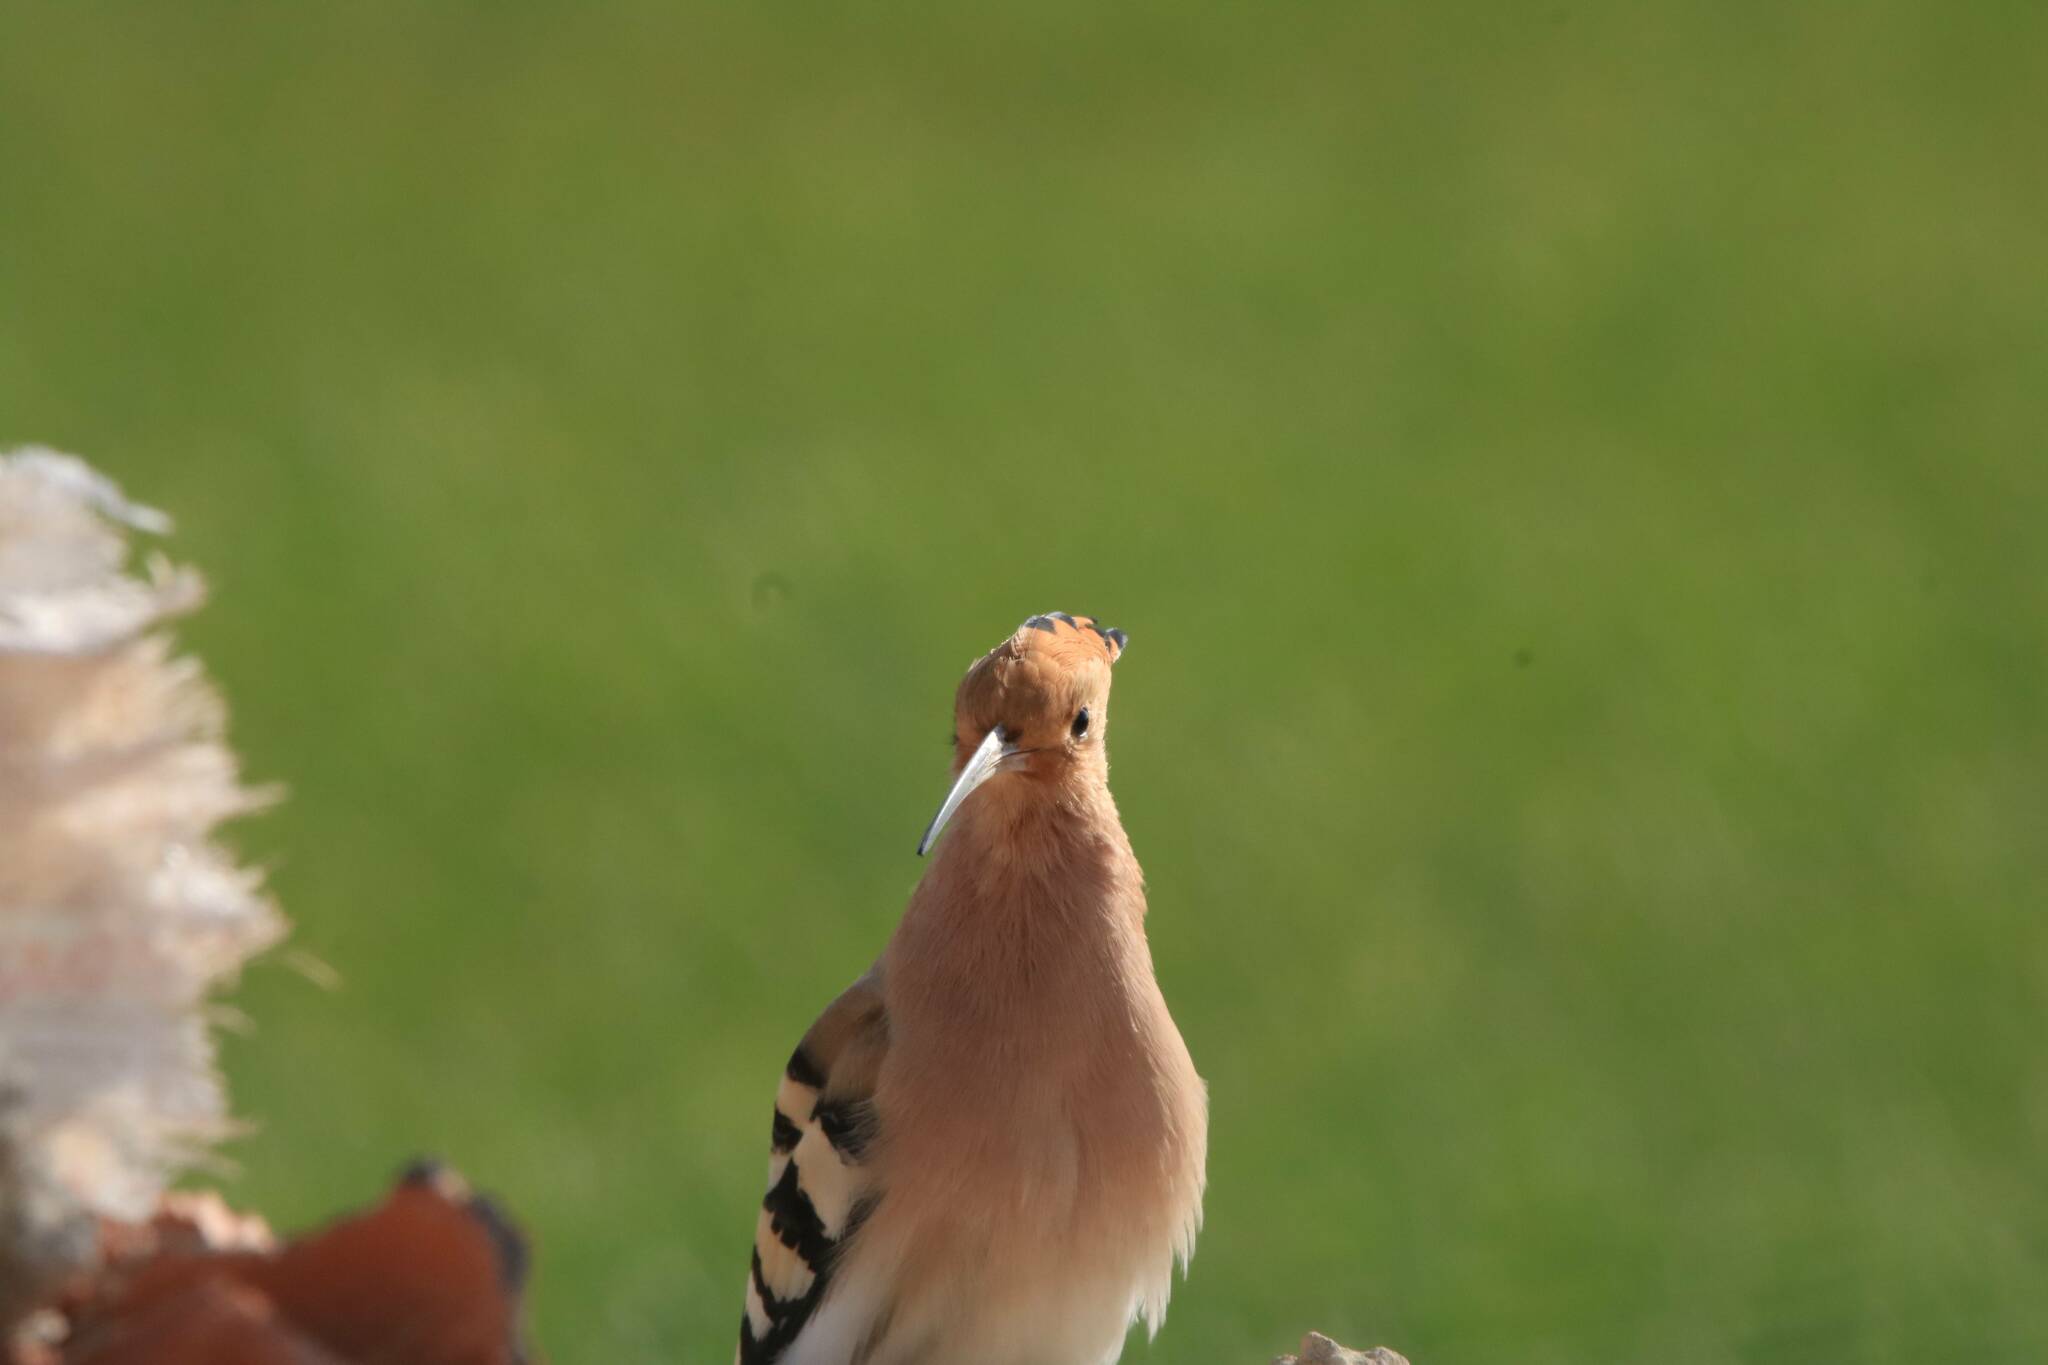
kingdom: Animalia
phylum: Chordata
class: Aves
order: Bucerotiformes
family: Upupidae
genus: Upupa
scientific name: Upupa epops
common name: Eurasian hoopoe
